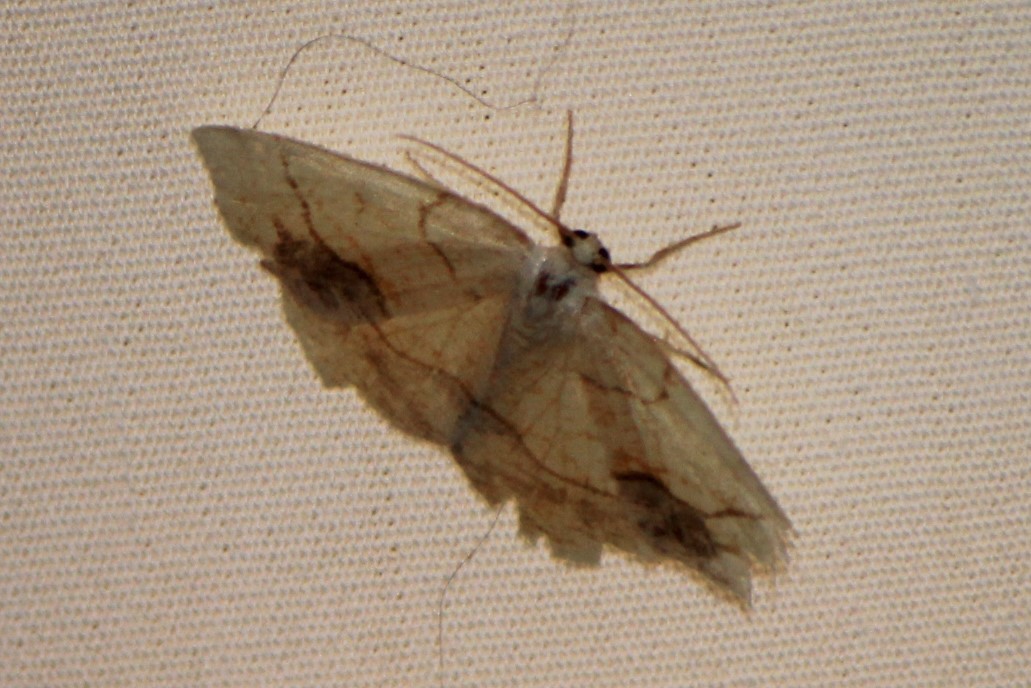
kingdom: Animalia
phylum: Arthropoda
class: Insecta
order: Lepidoptera
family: Geometridae
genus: Nematocampa
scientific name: Nematocampa resistaria
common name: Horned spanworm moth
